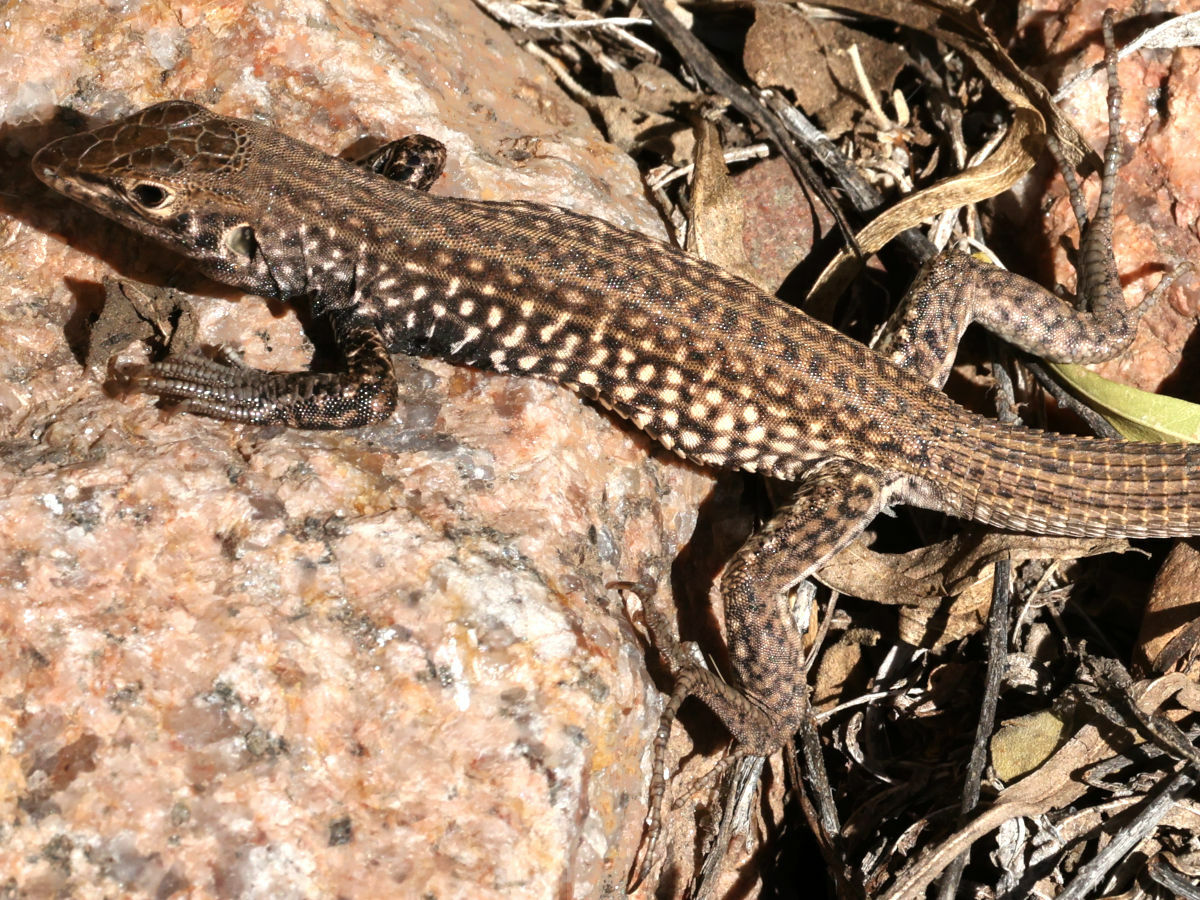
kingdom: Animalia
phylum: Chordata
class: Squamata
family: Teiidae
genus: Aspidoscelis
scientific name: Aspidoscelis tigris
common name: Tiger whiptail
